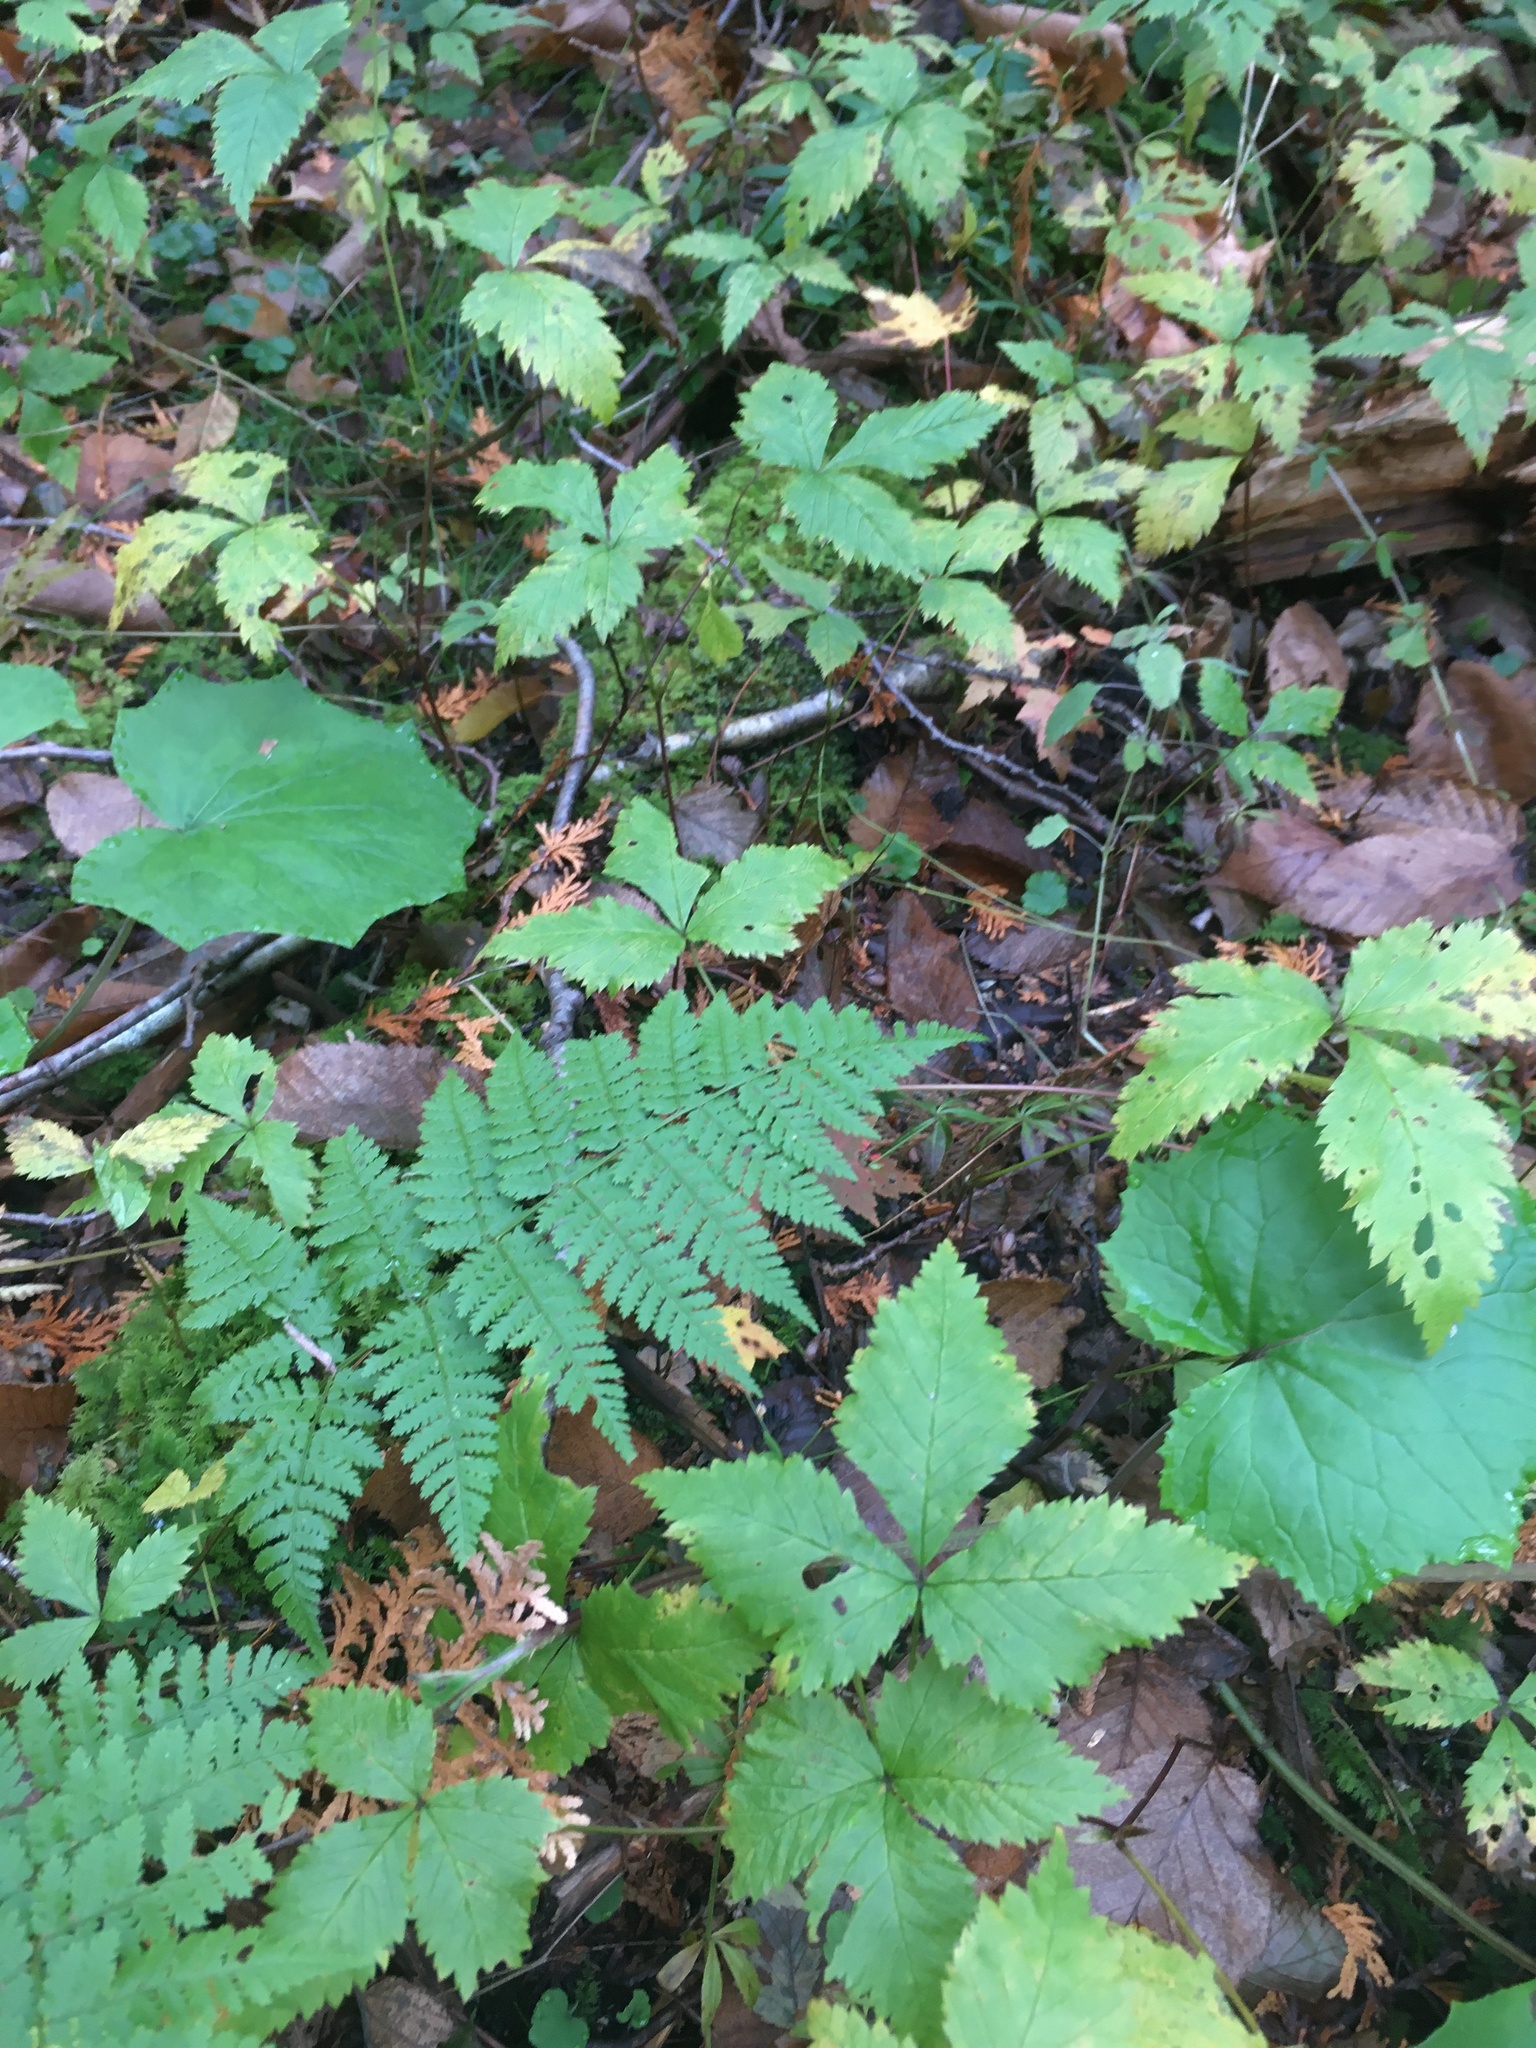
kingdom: Plantae
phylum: Tracheophyta
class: Magnoliopsida
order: Rosales
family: Rosaceae
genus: Rubus
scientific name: Rubus pubescens
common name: Dwarf raspberry
